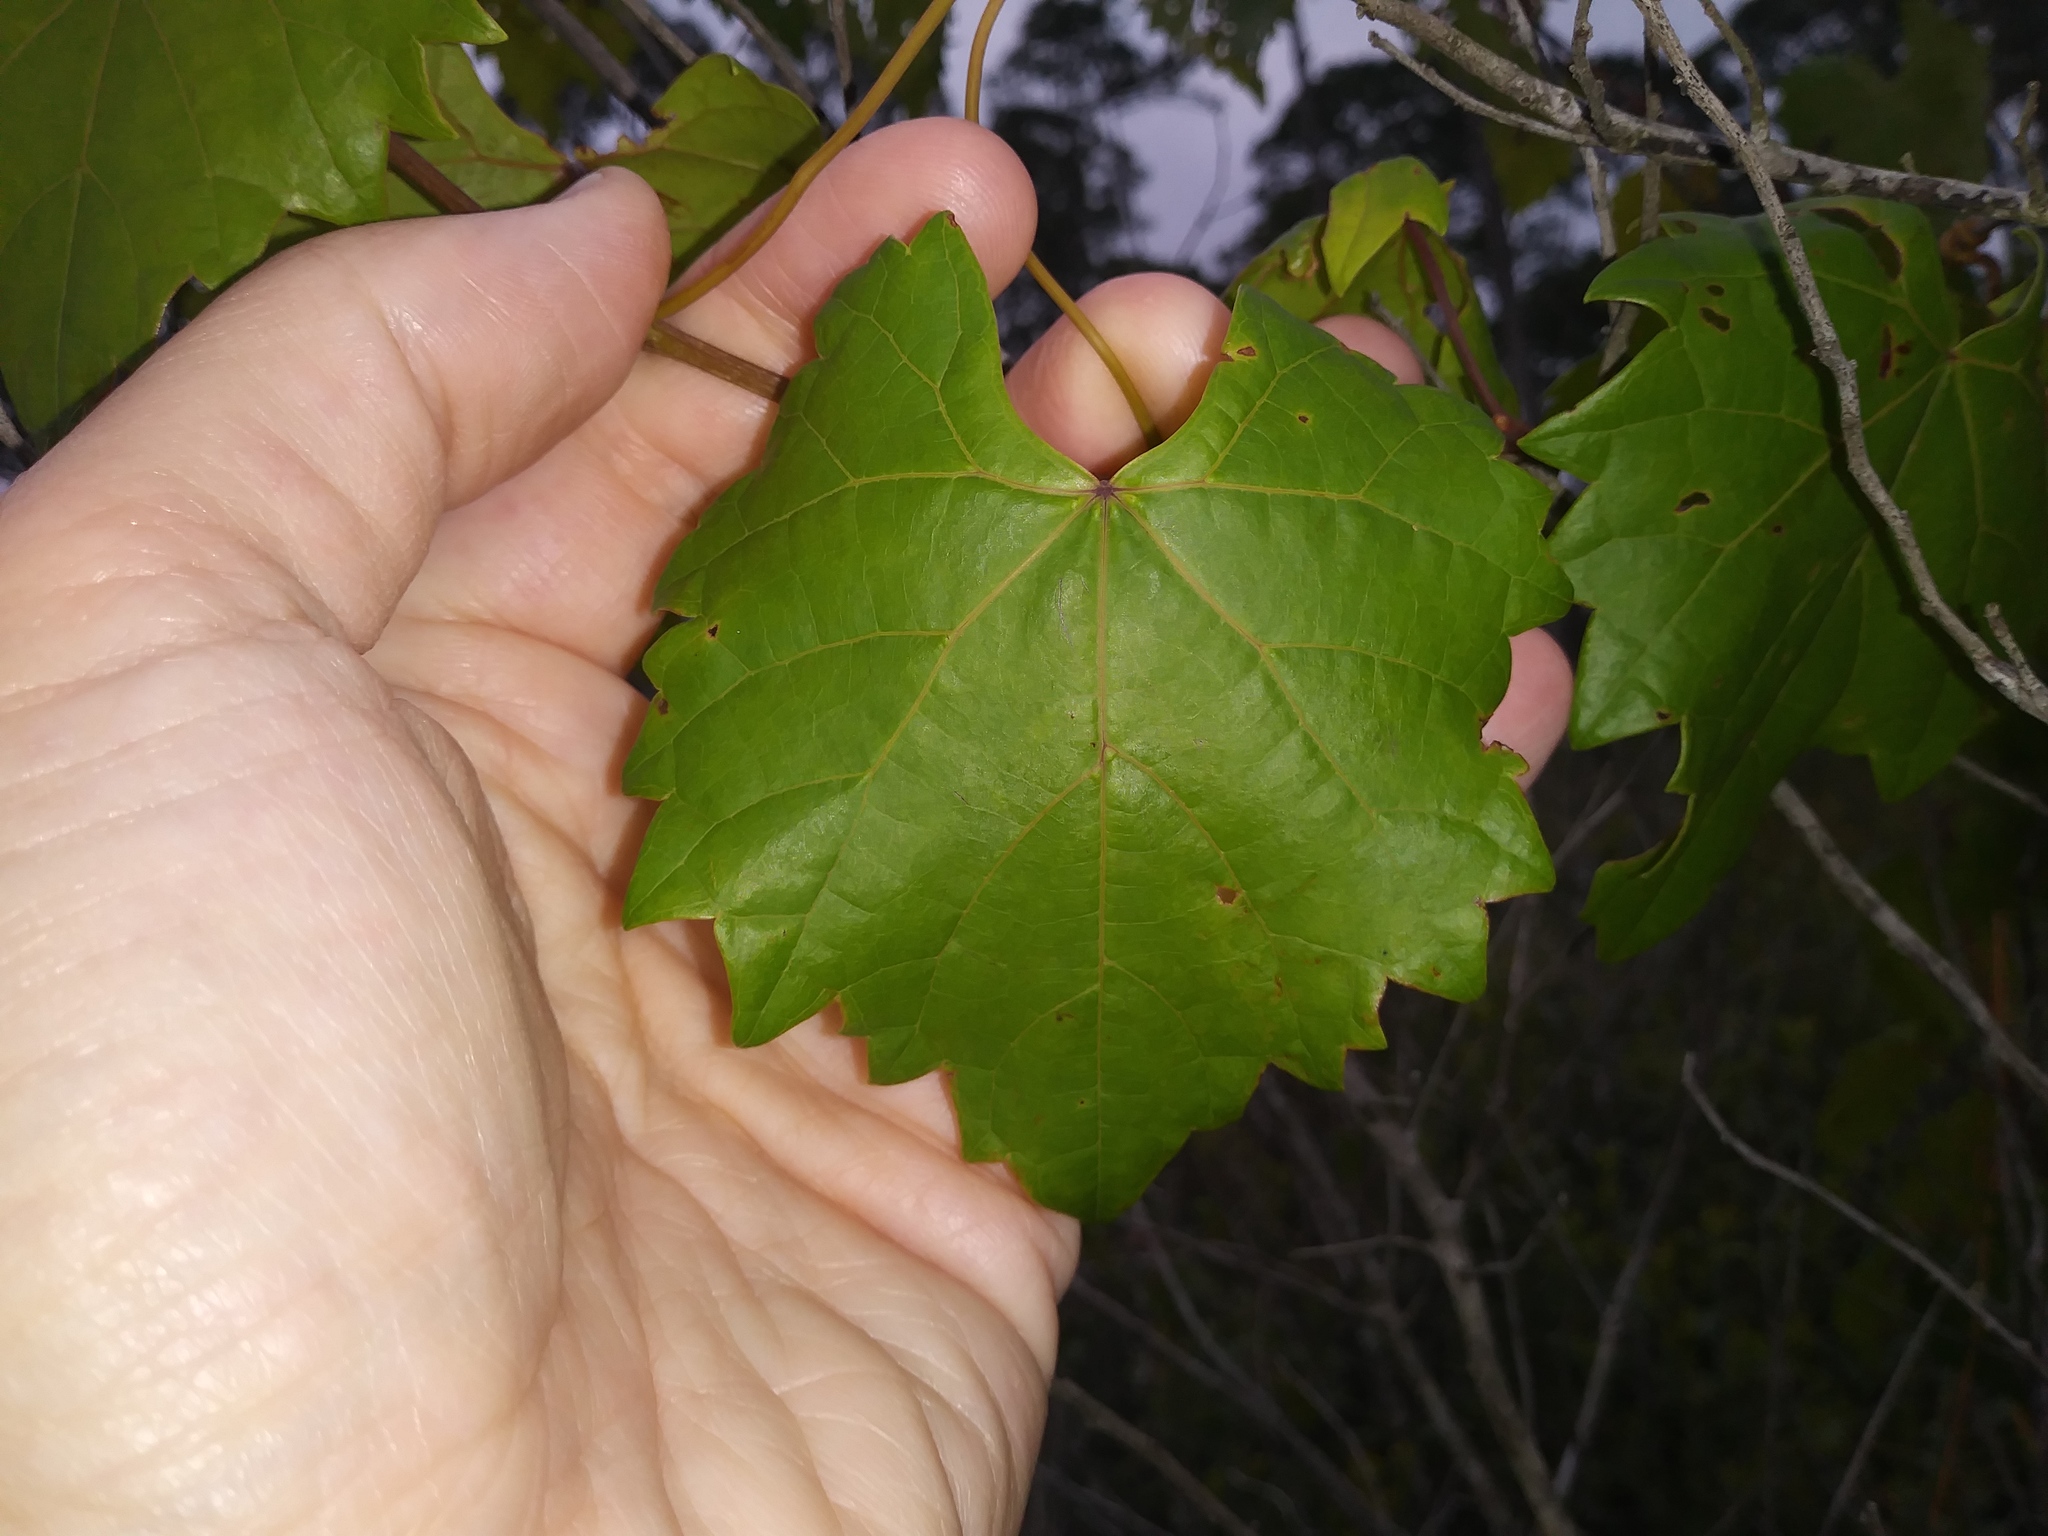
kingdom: Plantae
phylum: Tracheophyta
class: Magnoliopsida
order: Vitales
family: Vitaceae
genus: Vitis
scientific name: Vitis rotundifolia
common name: Muscadine grape
